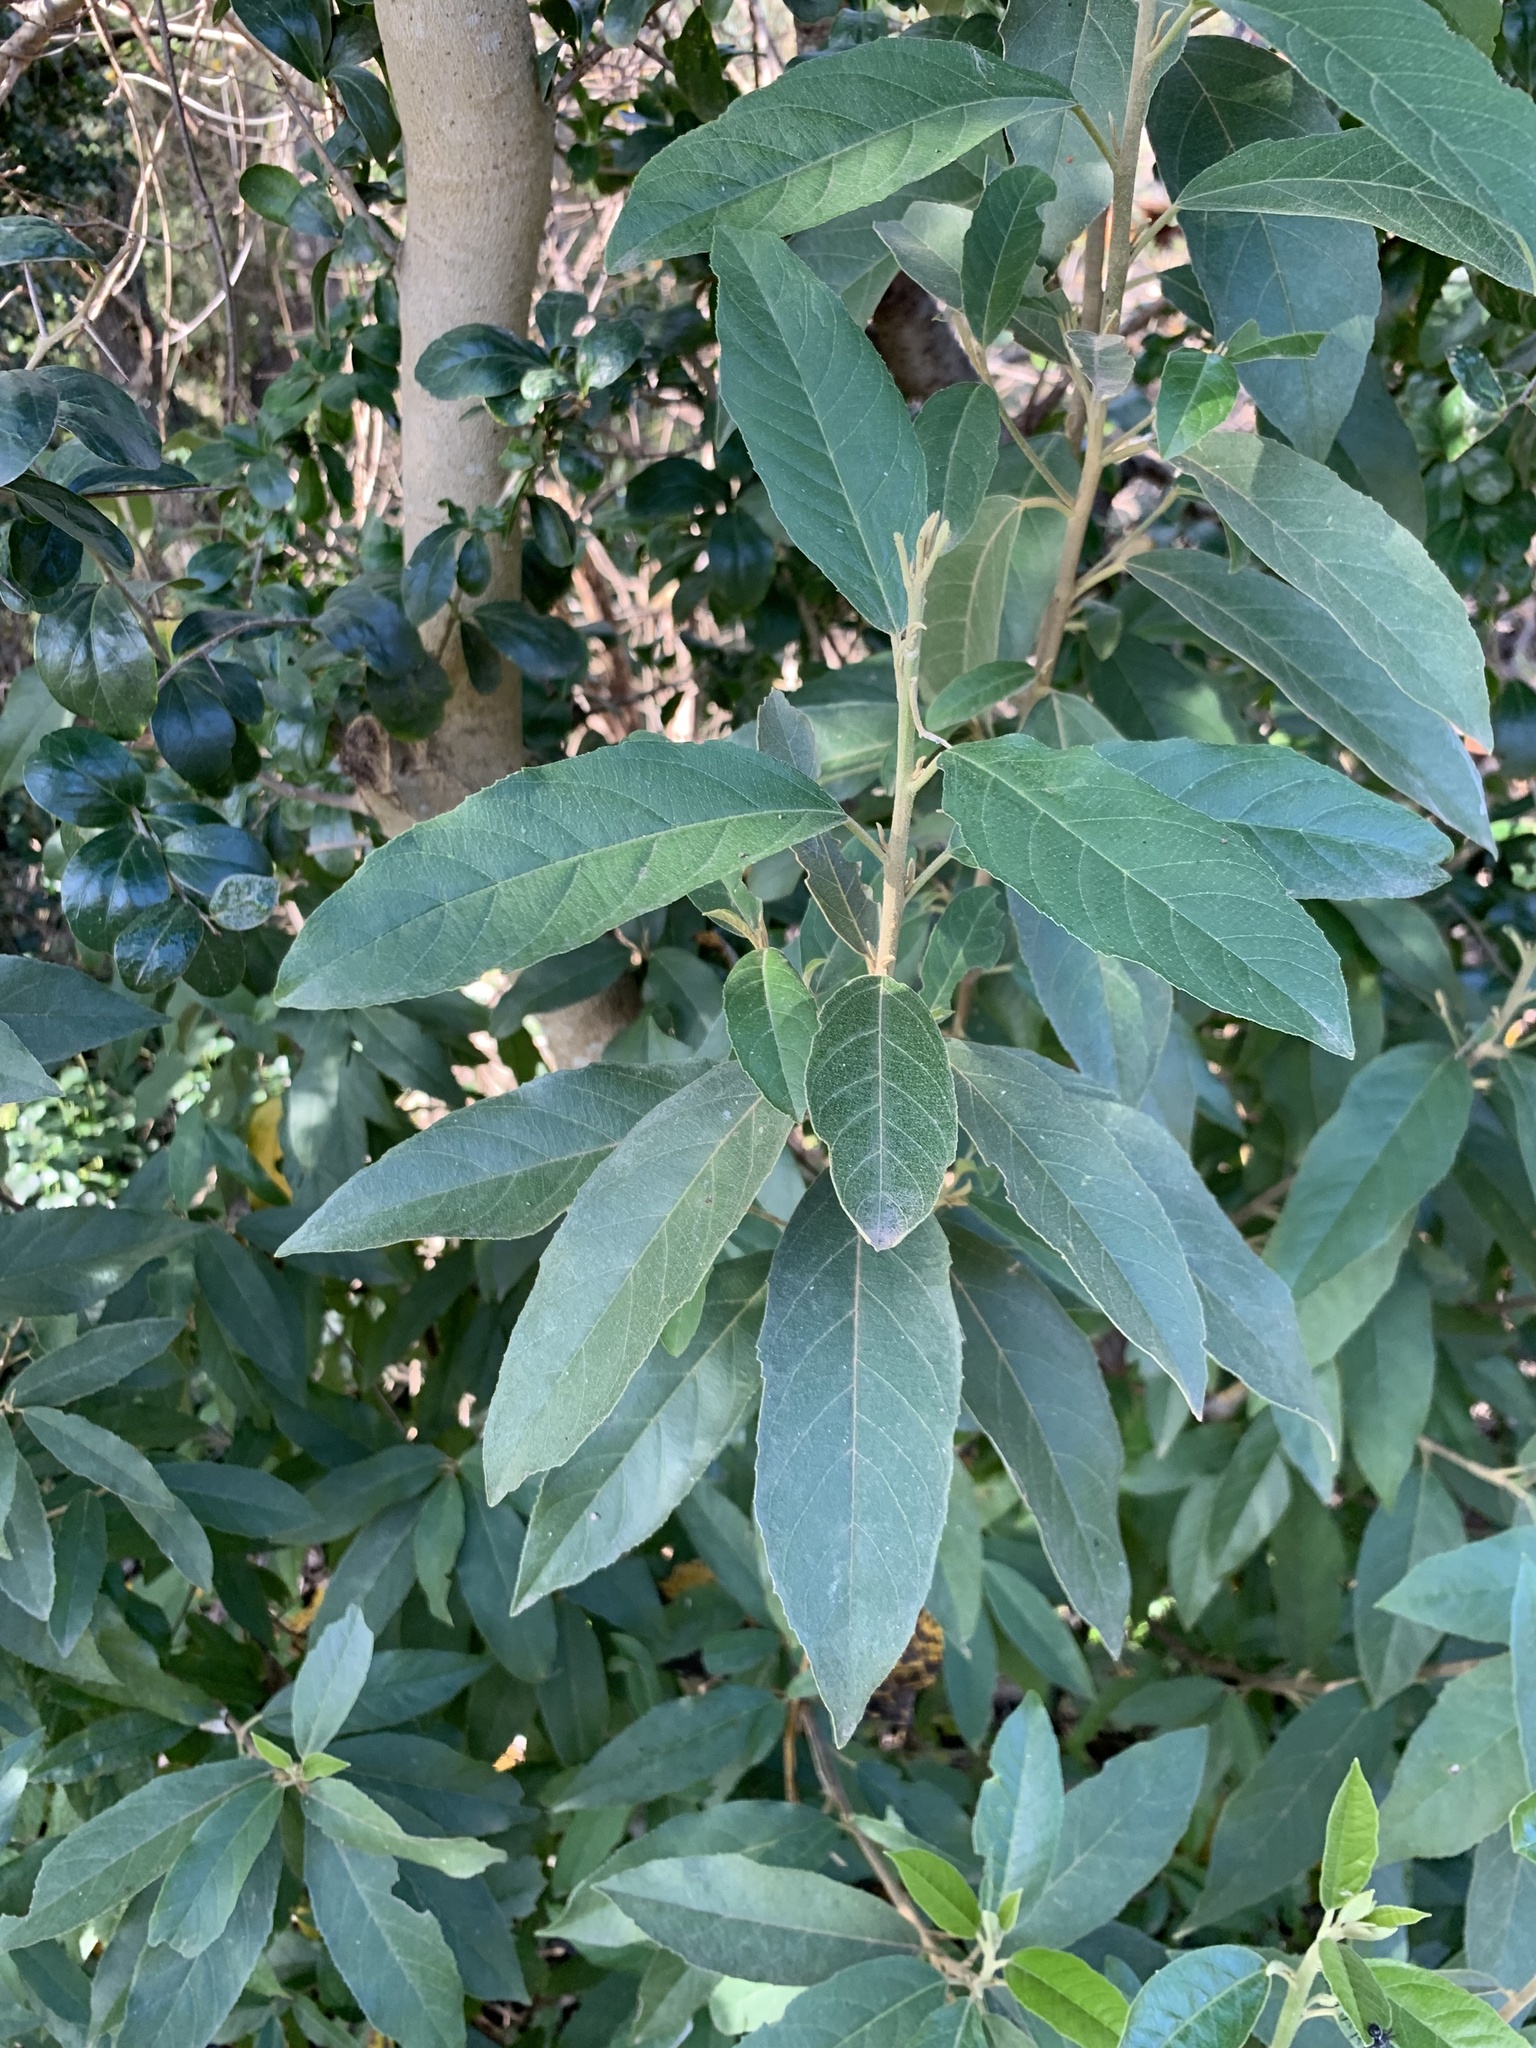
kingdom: Plantae
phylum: Tracheophyta
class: Magnoliopsida
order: Malpighiales
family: Achariaceae
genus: Kiggelaria
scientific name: Kiggelaria africana
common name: Wild peach
